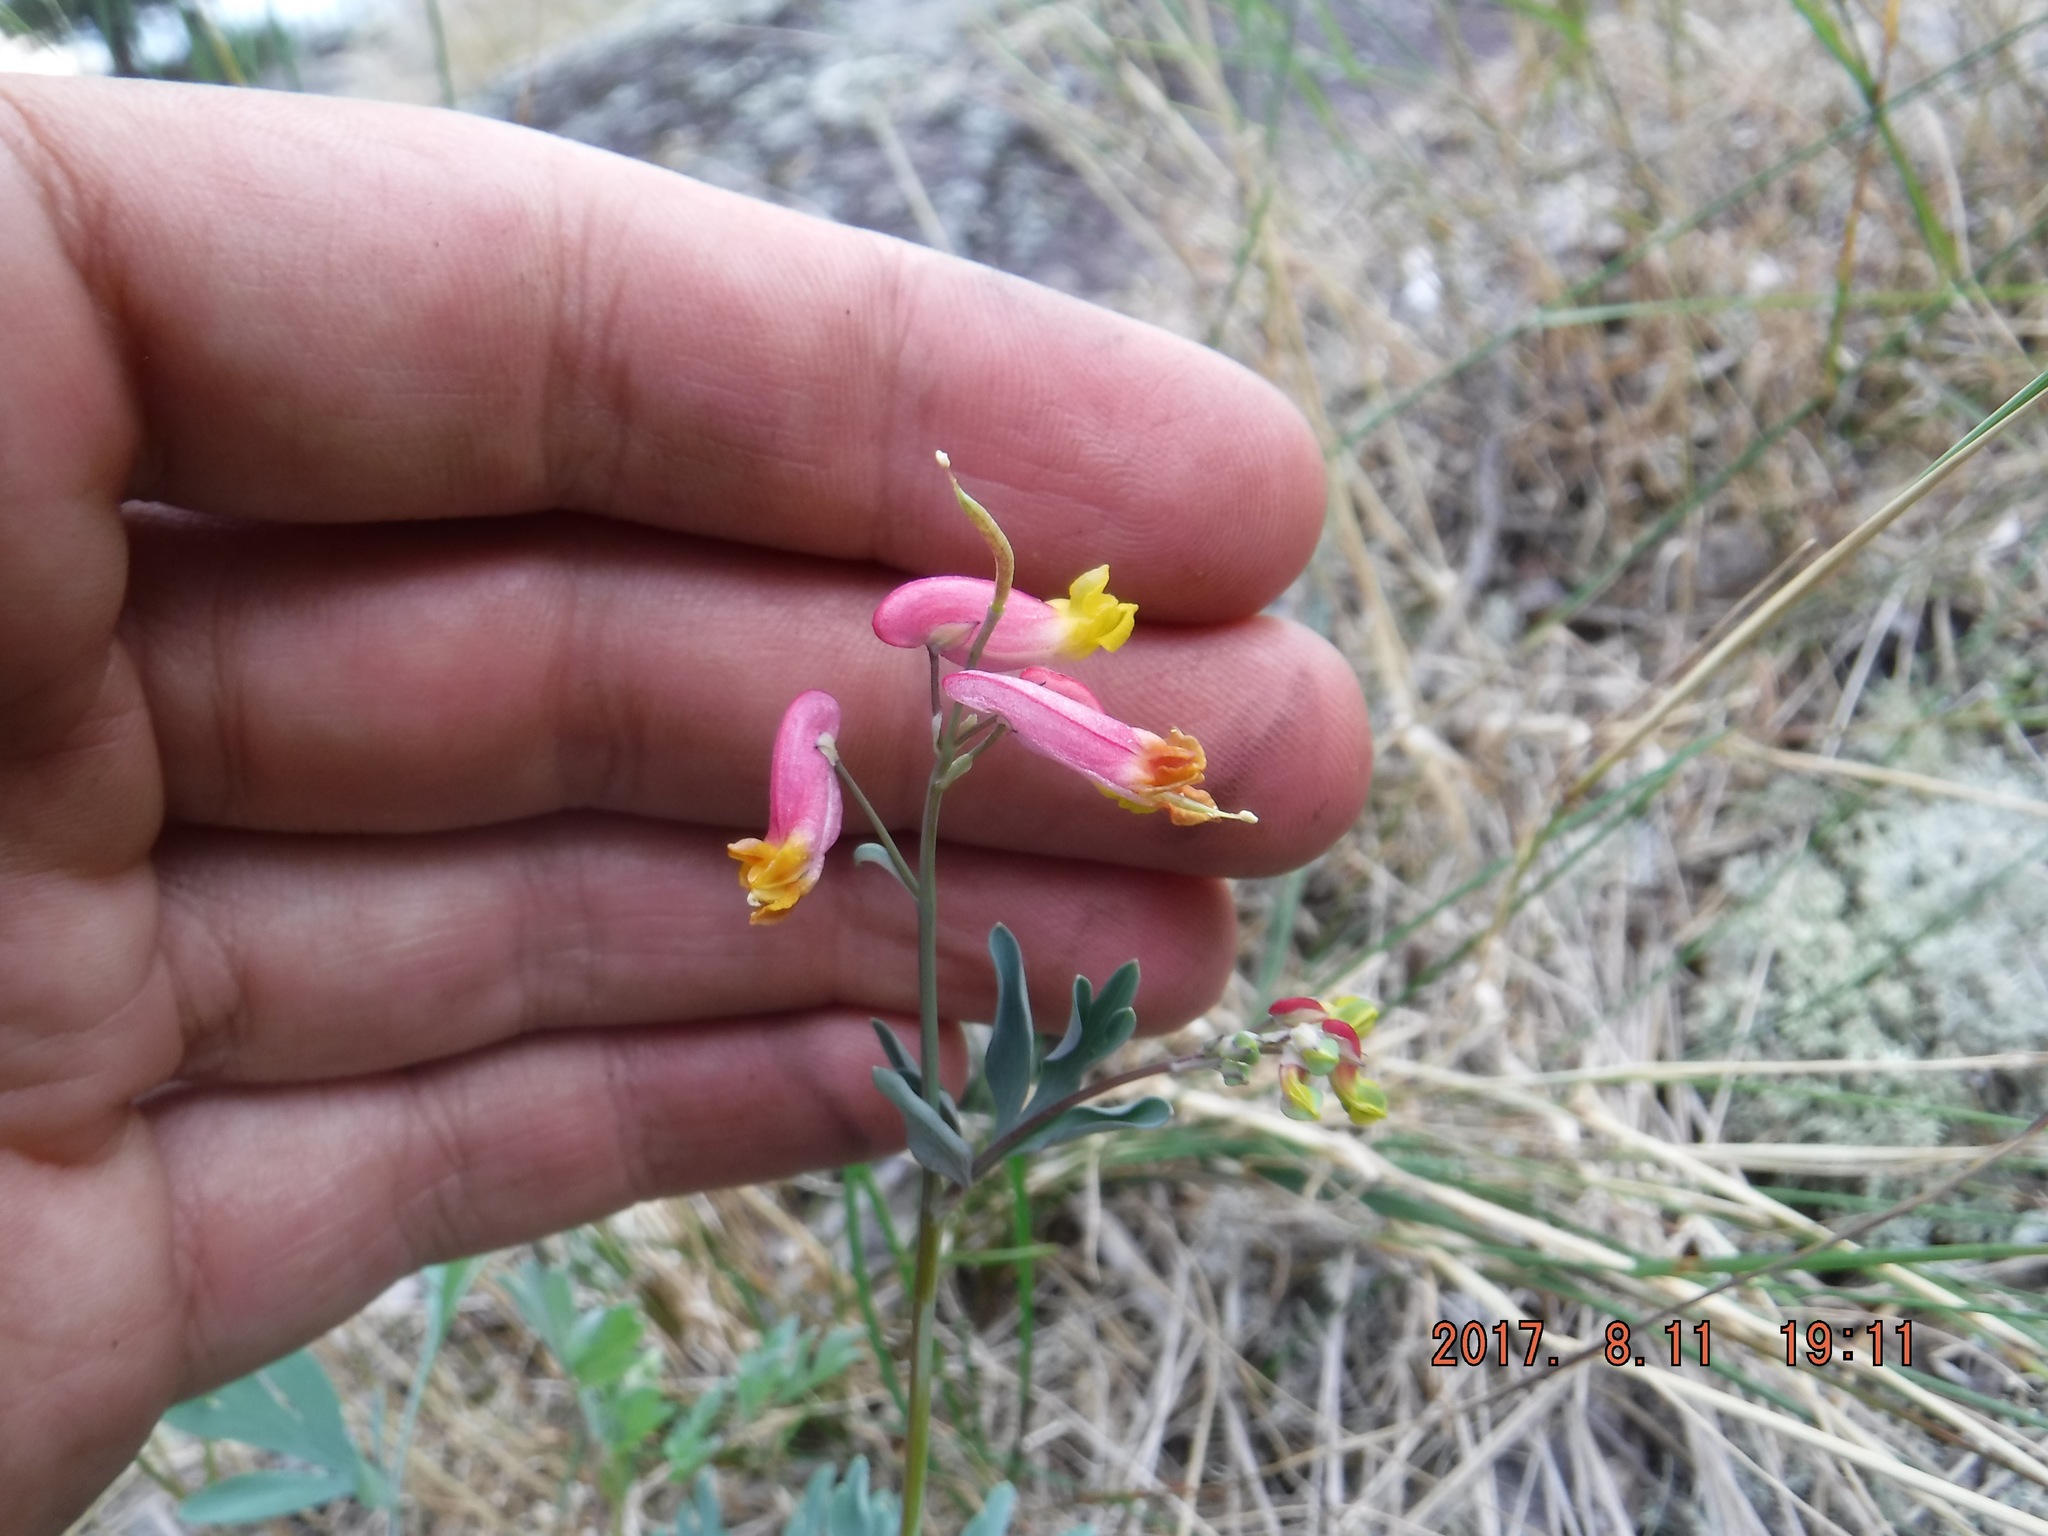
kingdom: Plantae
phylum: Tracheophyta
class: Magnoliopsida
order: Ranunculales
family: Papaveraceae
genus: Capnoides
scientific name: Capnoides sempervirens
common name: Rock harlequin
